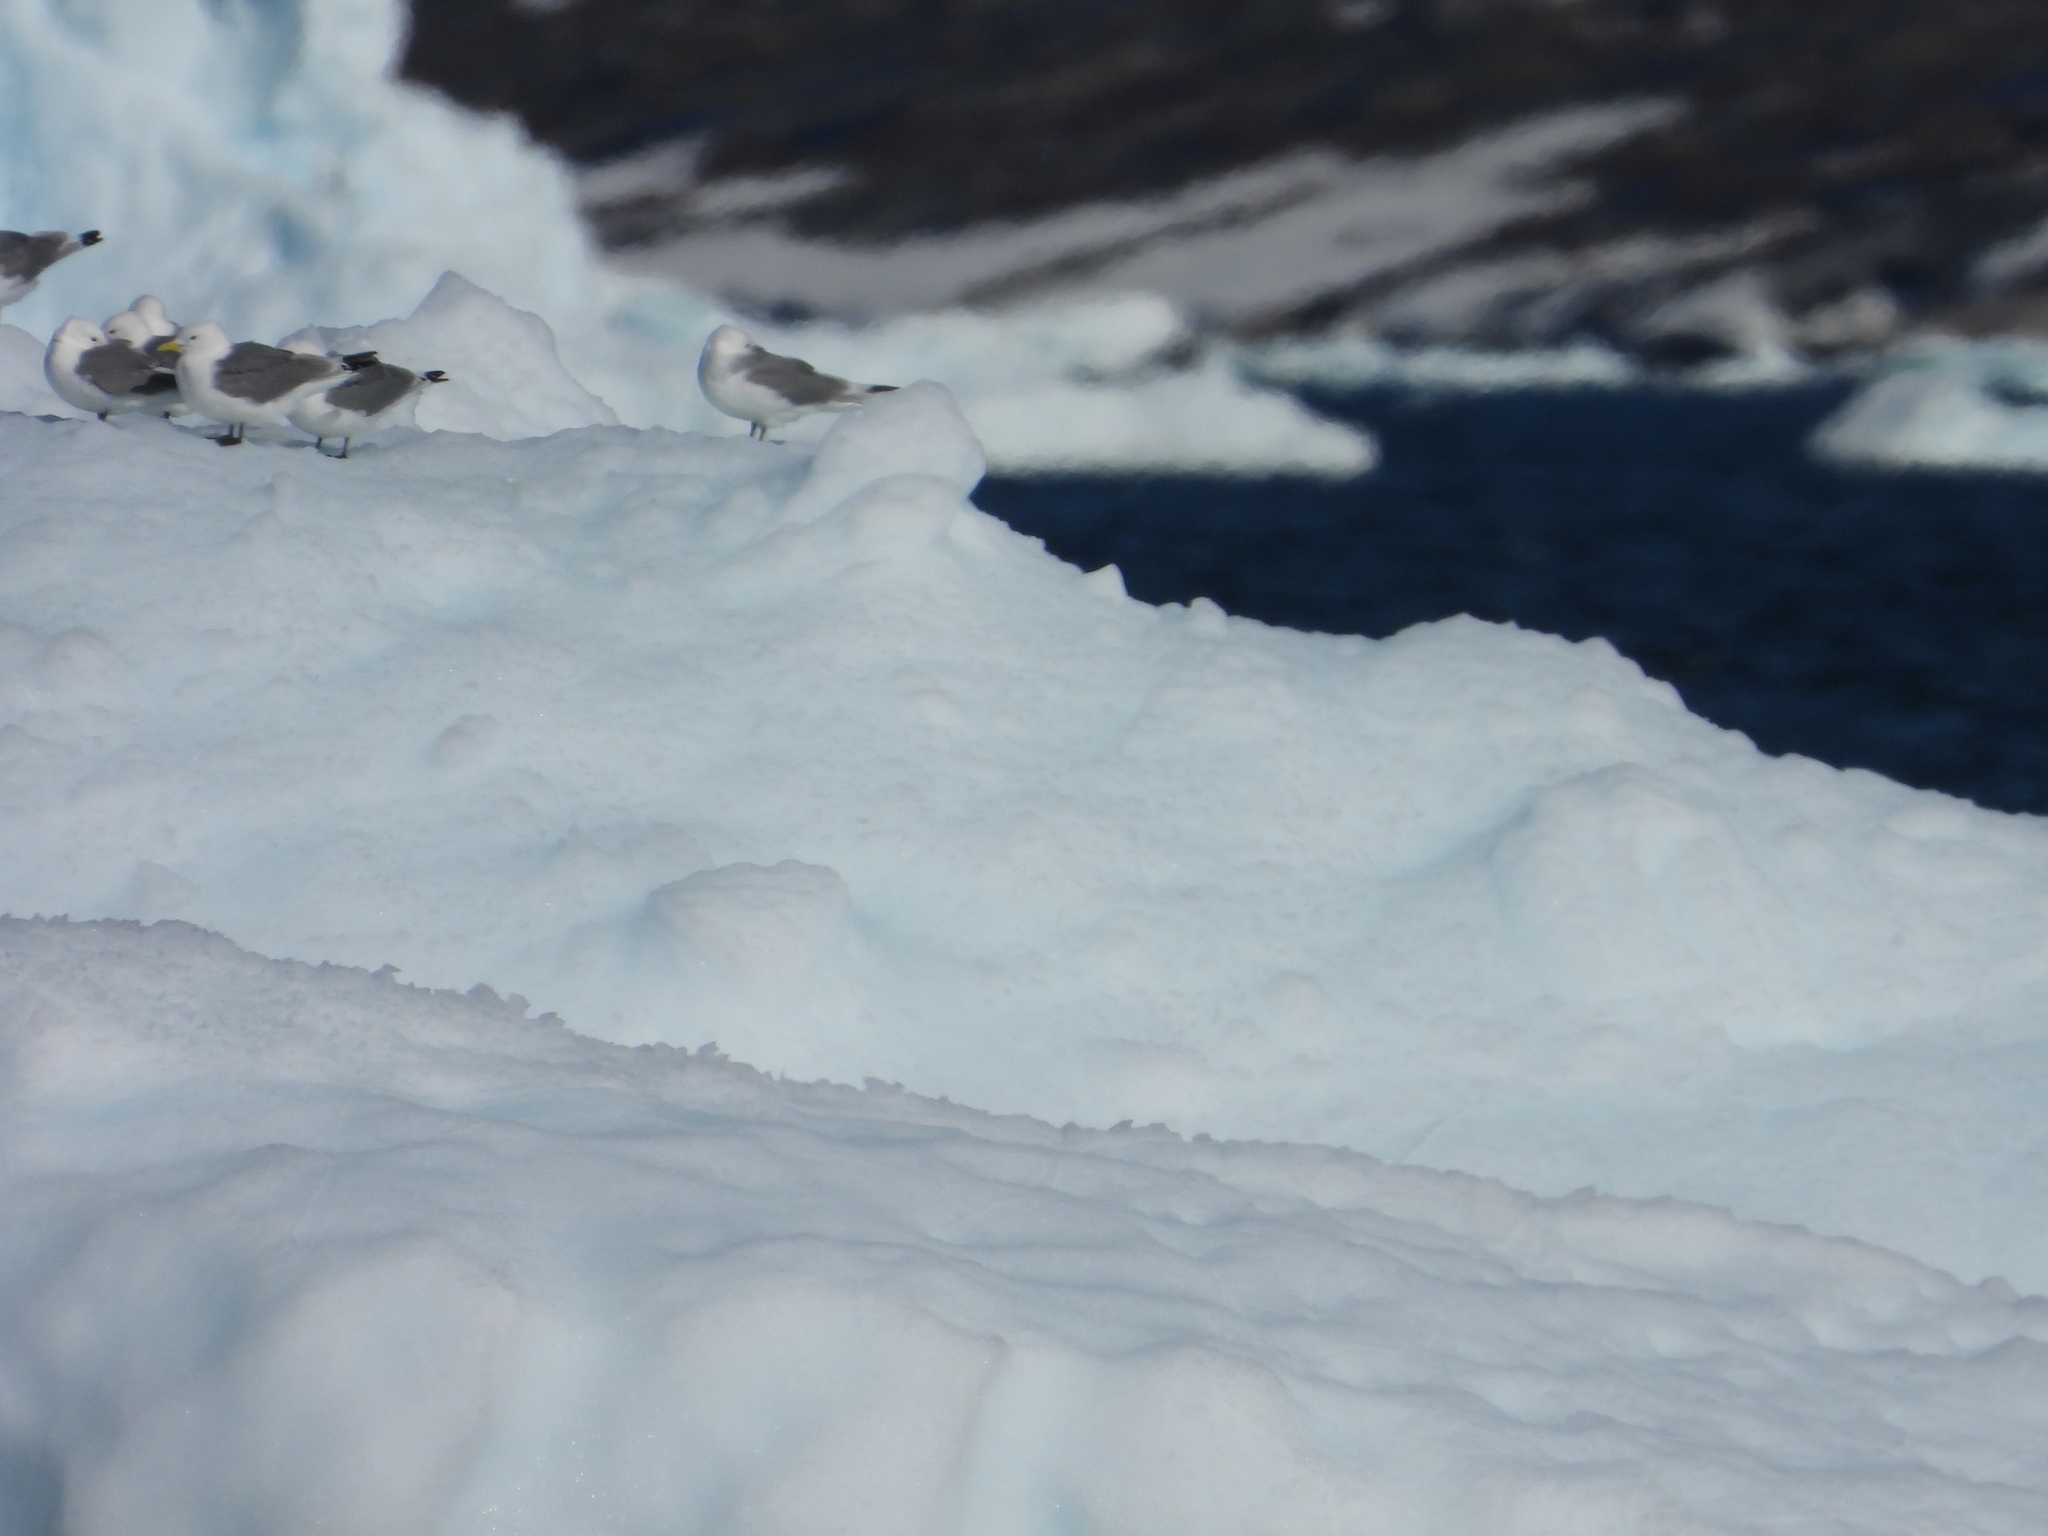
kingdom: Animalia
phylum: Chordata
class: Aves
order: Charadriiformes
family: Laridae
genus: Rissa
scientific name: Rissa tridactyla
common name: Black-legged kittiwake
